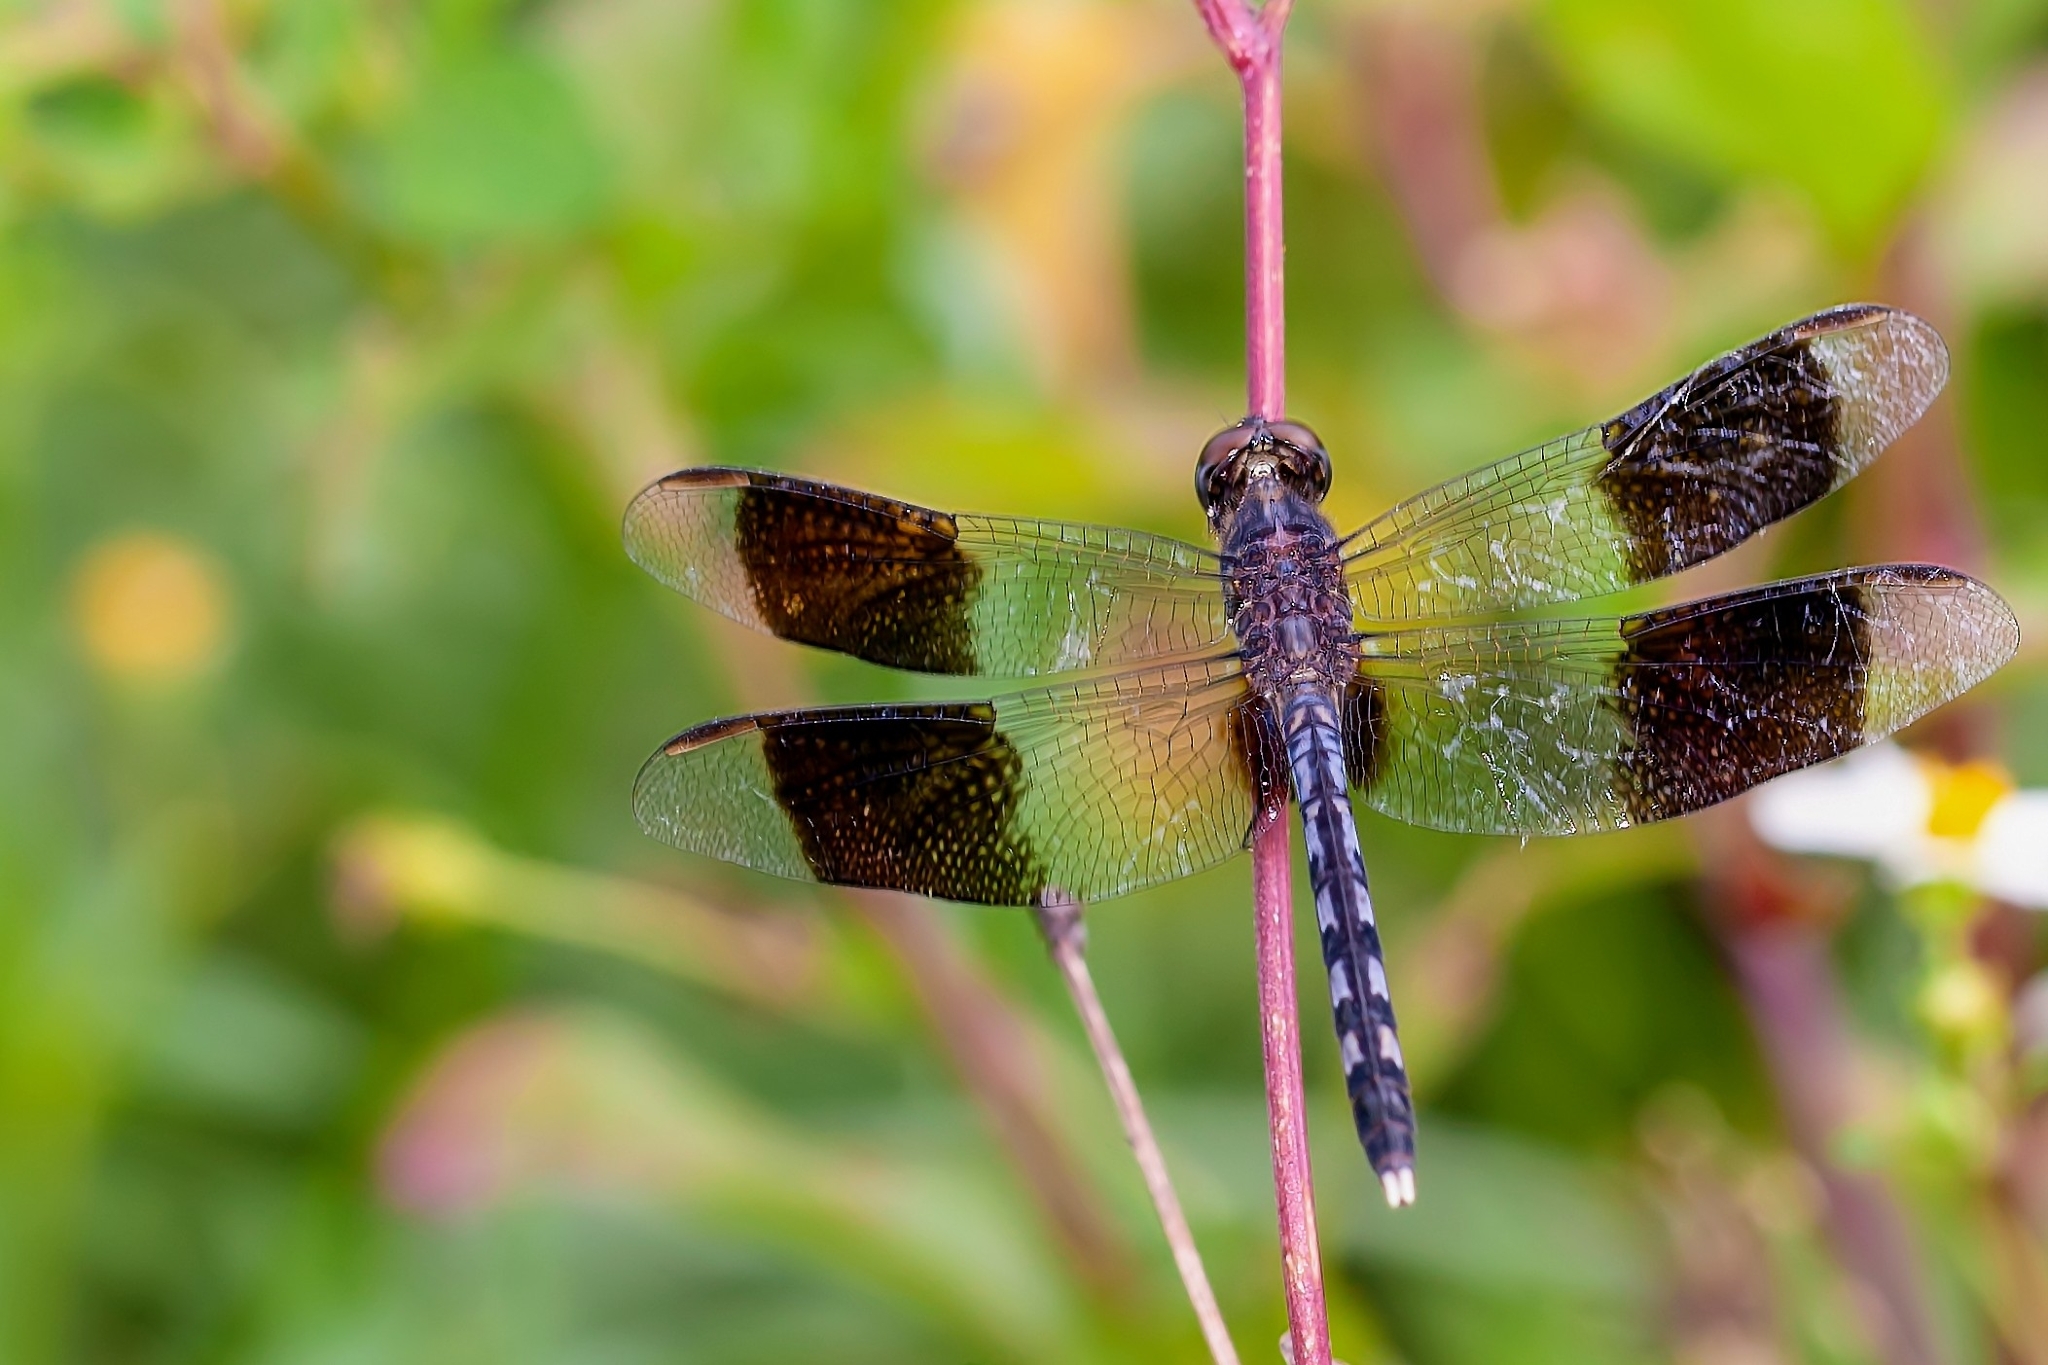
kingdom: Animalia
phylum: Arthropoda
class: Insecta
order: Odonata
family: Libellulidae
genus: Erythrodiplax
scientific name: Erythrodiplax umbrata
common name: Band-winged dragonlet
